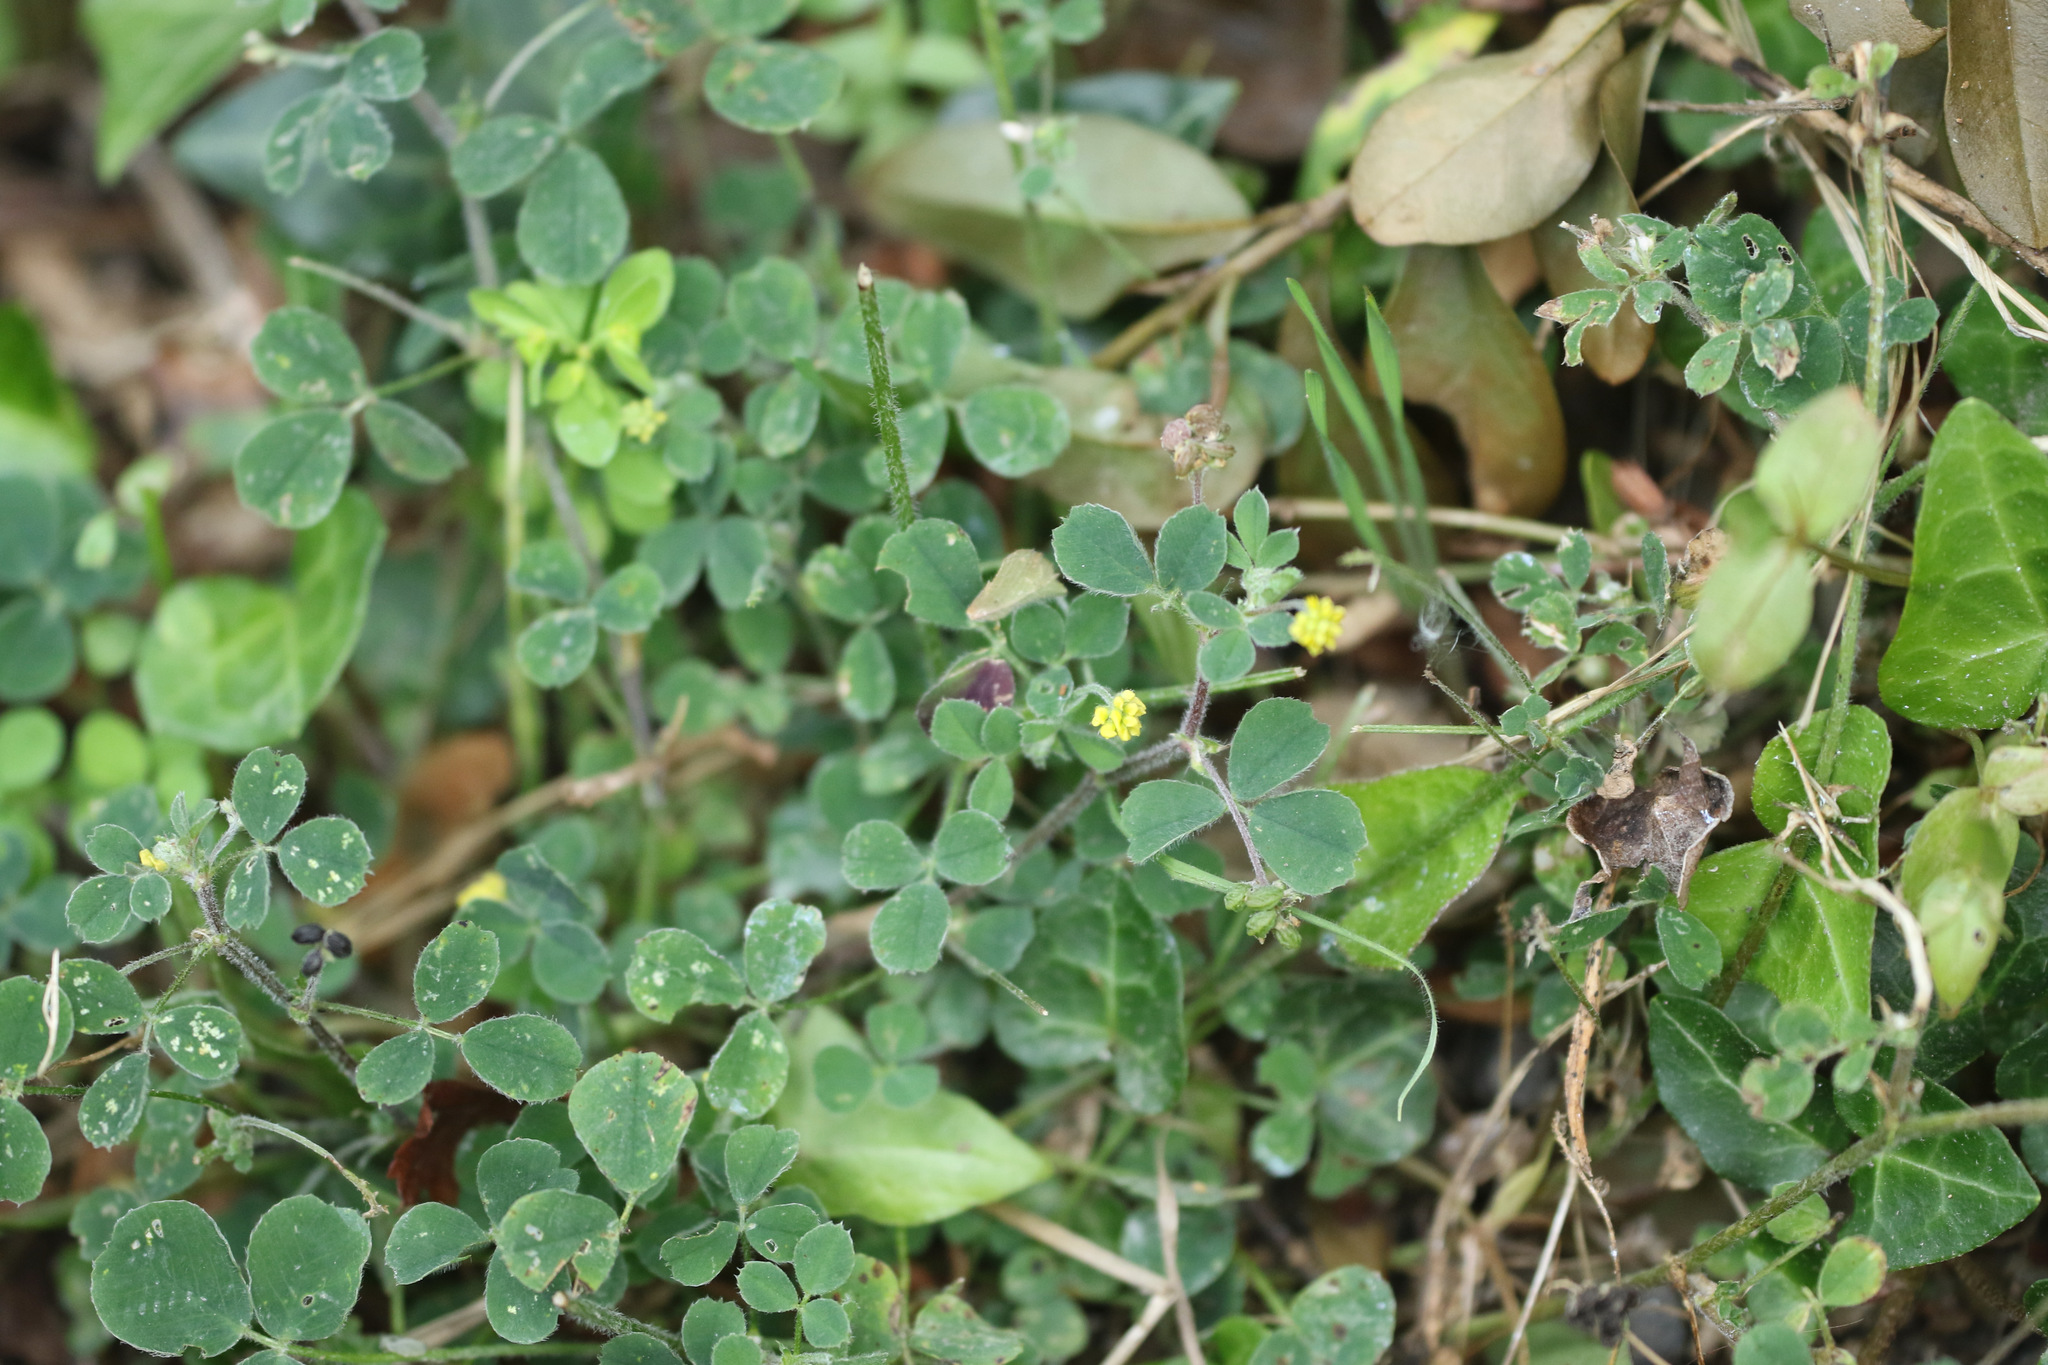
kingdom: Plantae
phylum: Tracheophyta
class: Magnoliopsida
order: Fabales
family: Fabaceae
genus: Medicago
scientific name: Medicago lupulina
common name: Black medick
